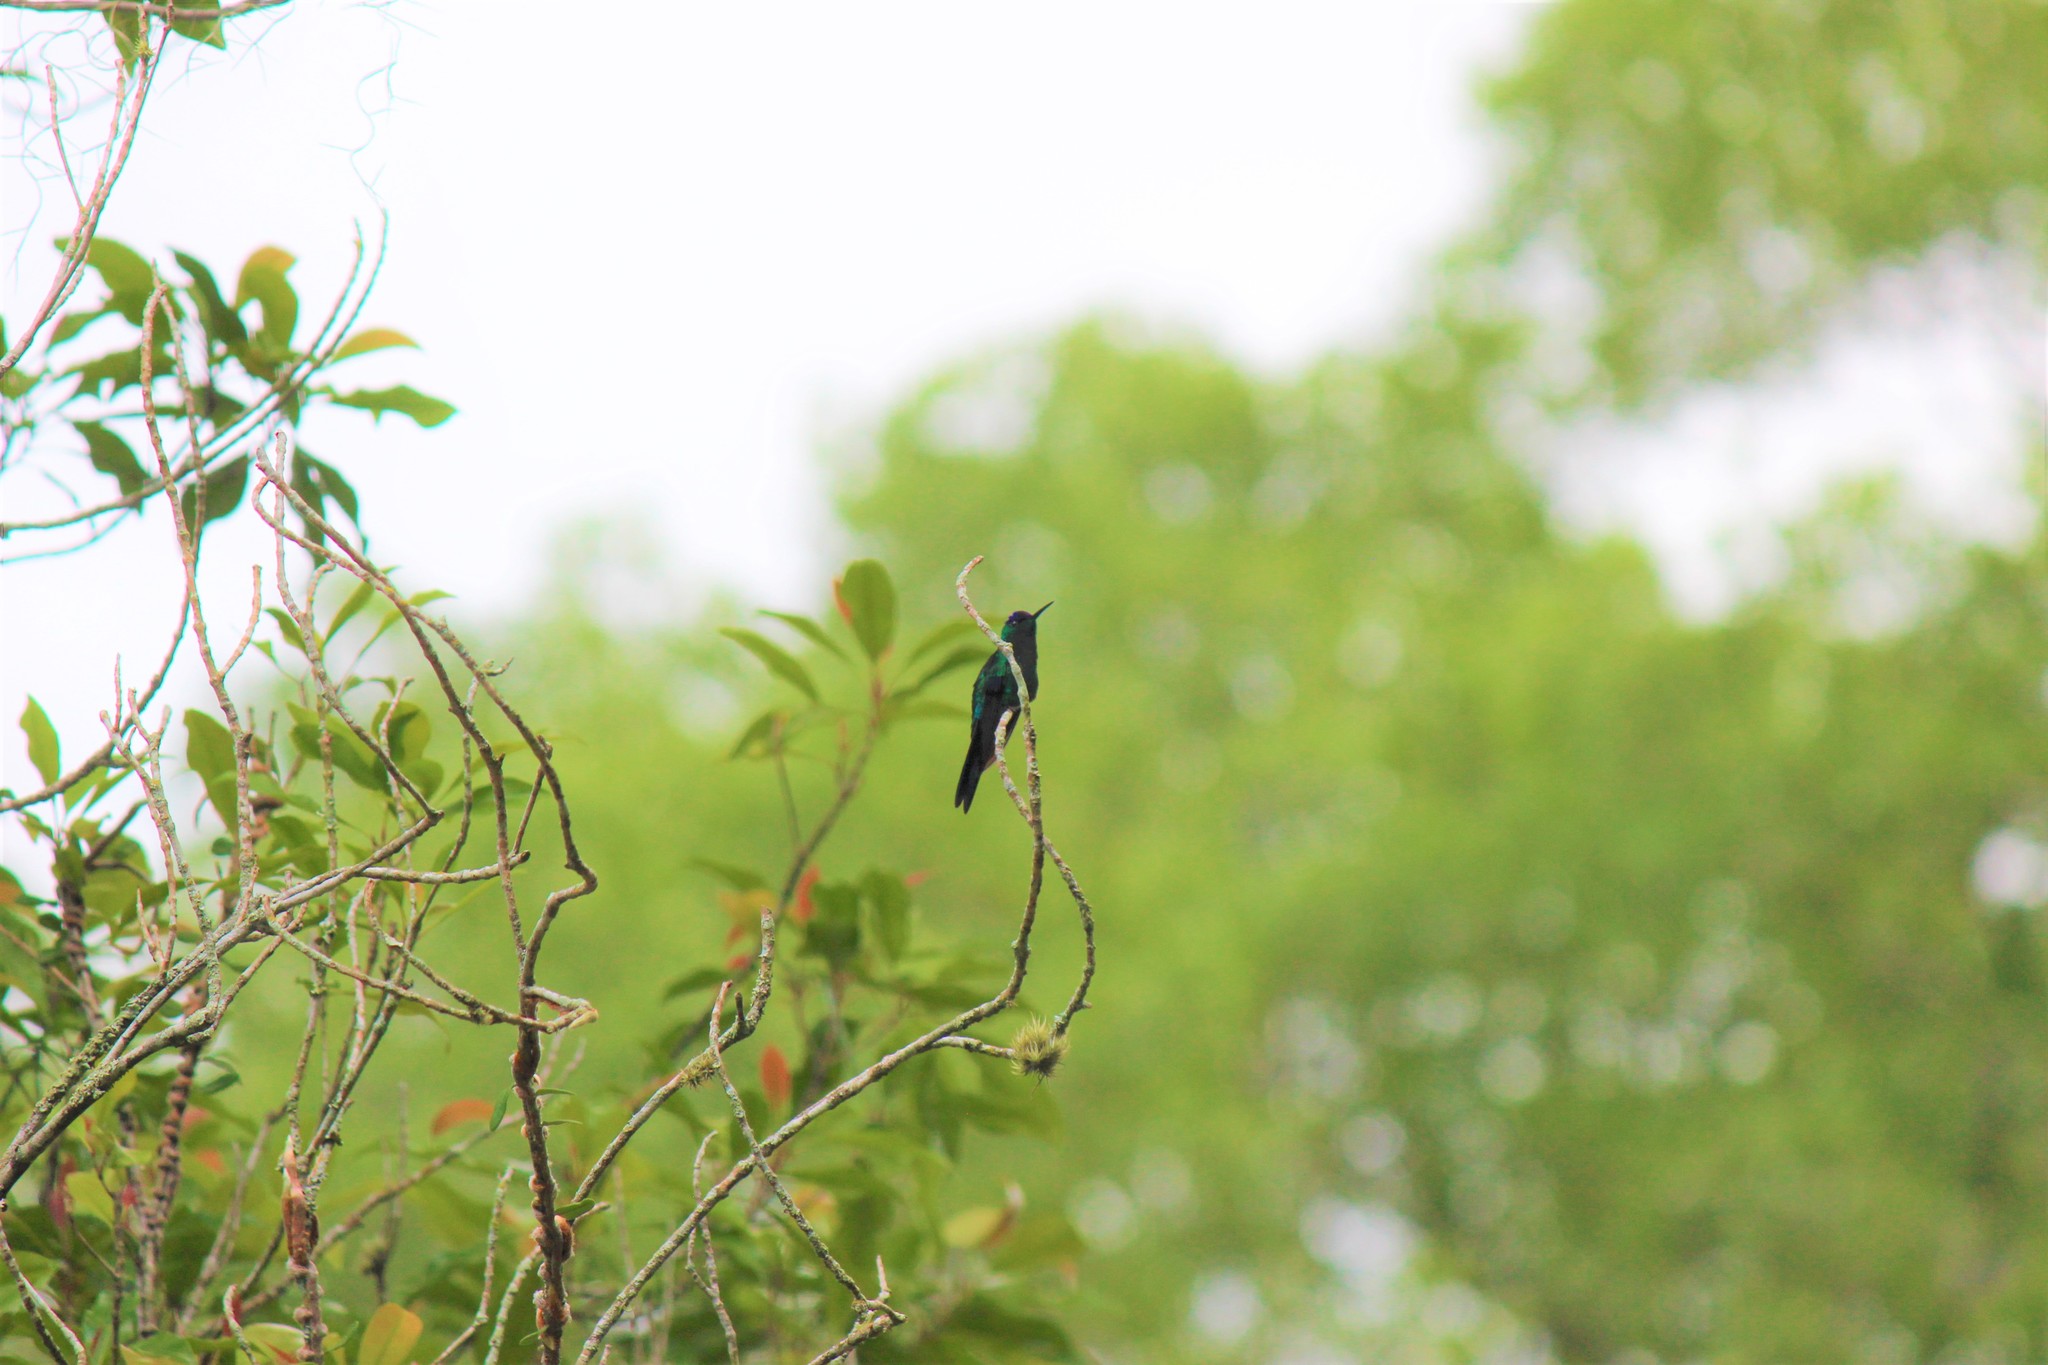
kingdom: Animalia
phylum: Chordata
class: Aves
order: Apodiformes
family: Trochilidae
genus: Thalurania
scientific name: Thalurania glaucopis
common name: Violet-capped woodnymph
